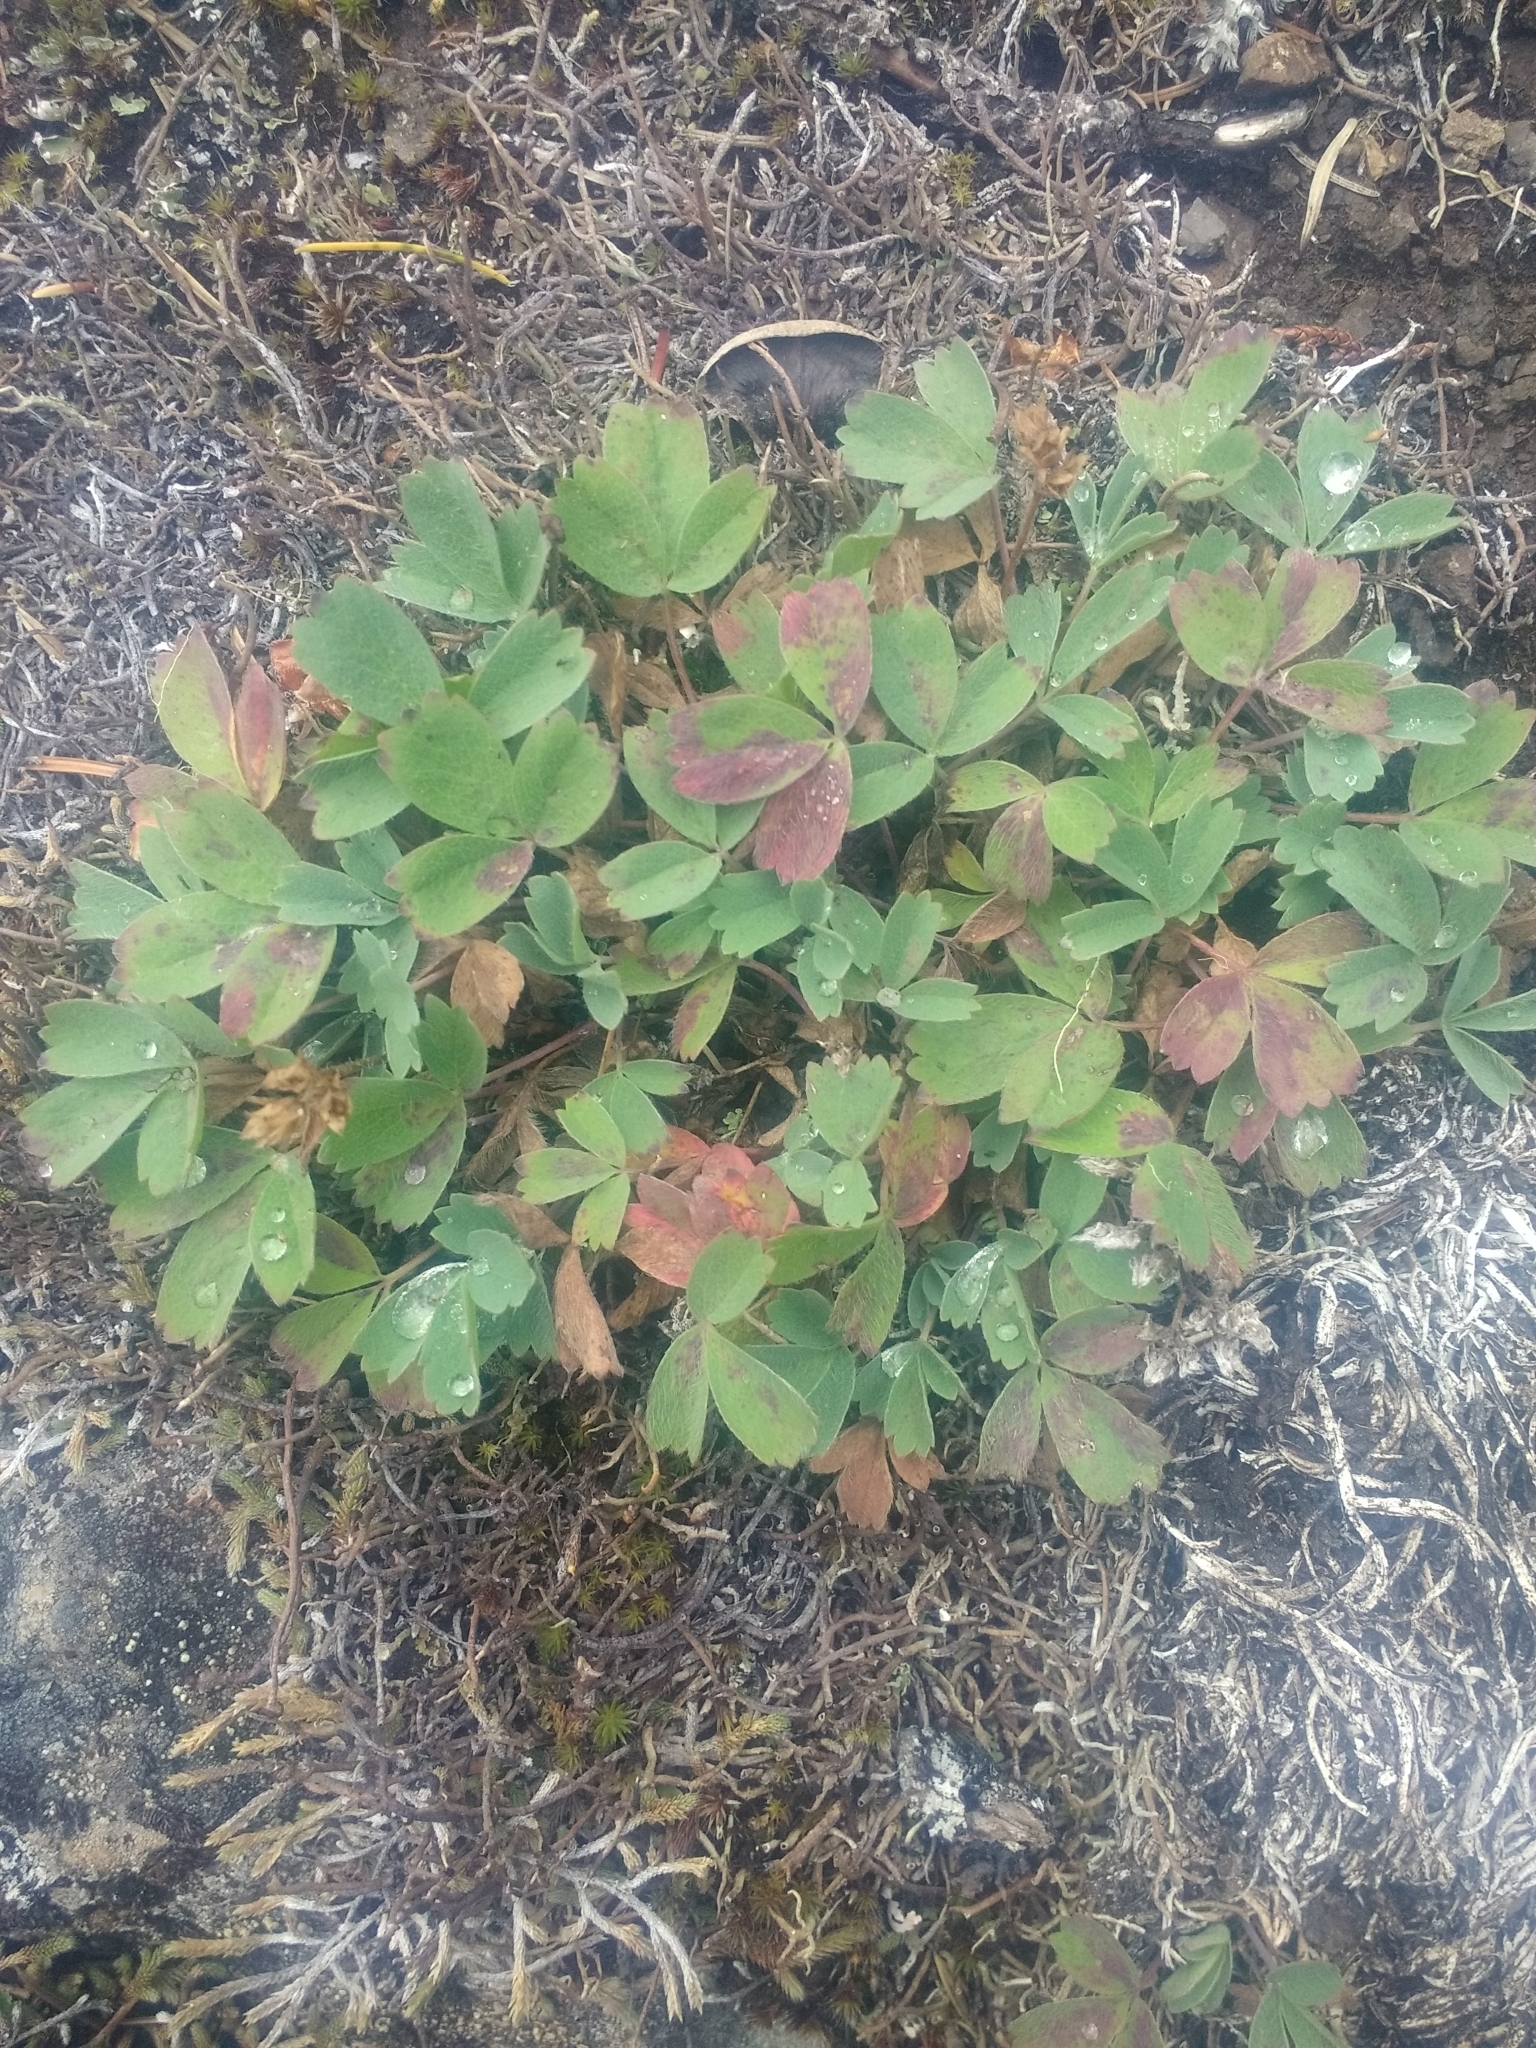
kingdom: Plantae
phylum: Tracheophyta
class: Magnoliopsida
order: Rosales
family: Rosaceae
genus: Sibbaldia
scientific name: Sibbaldia procumbens
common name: Creeping sibbaldia
